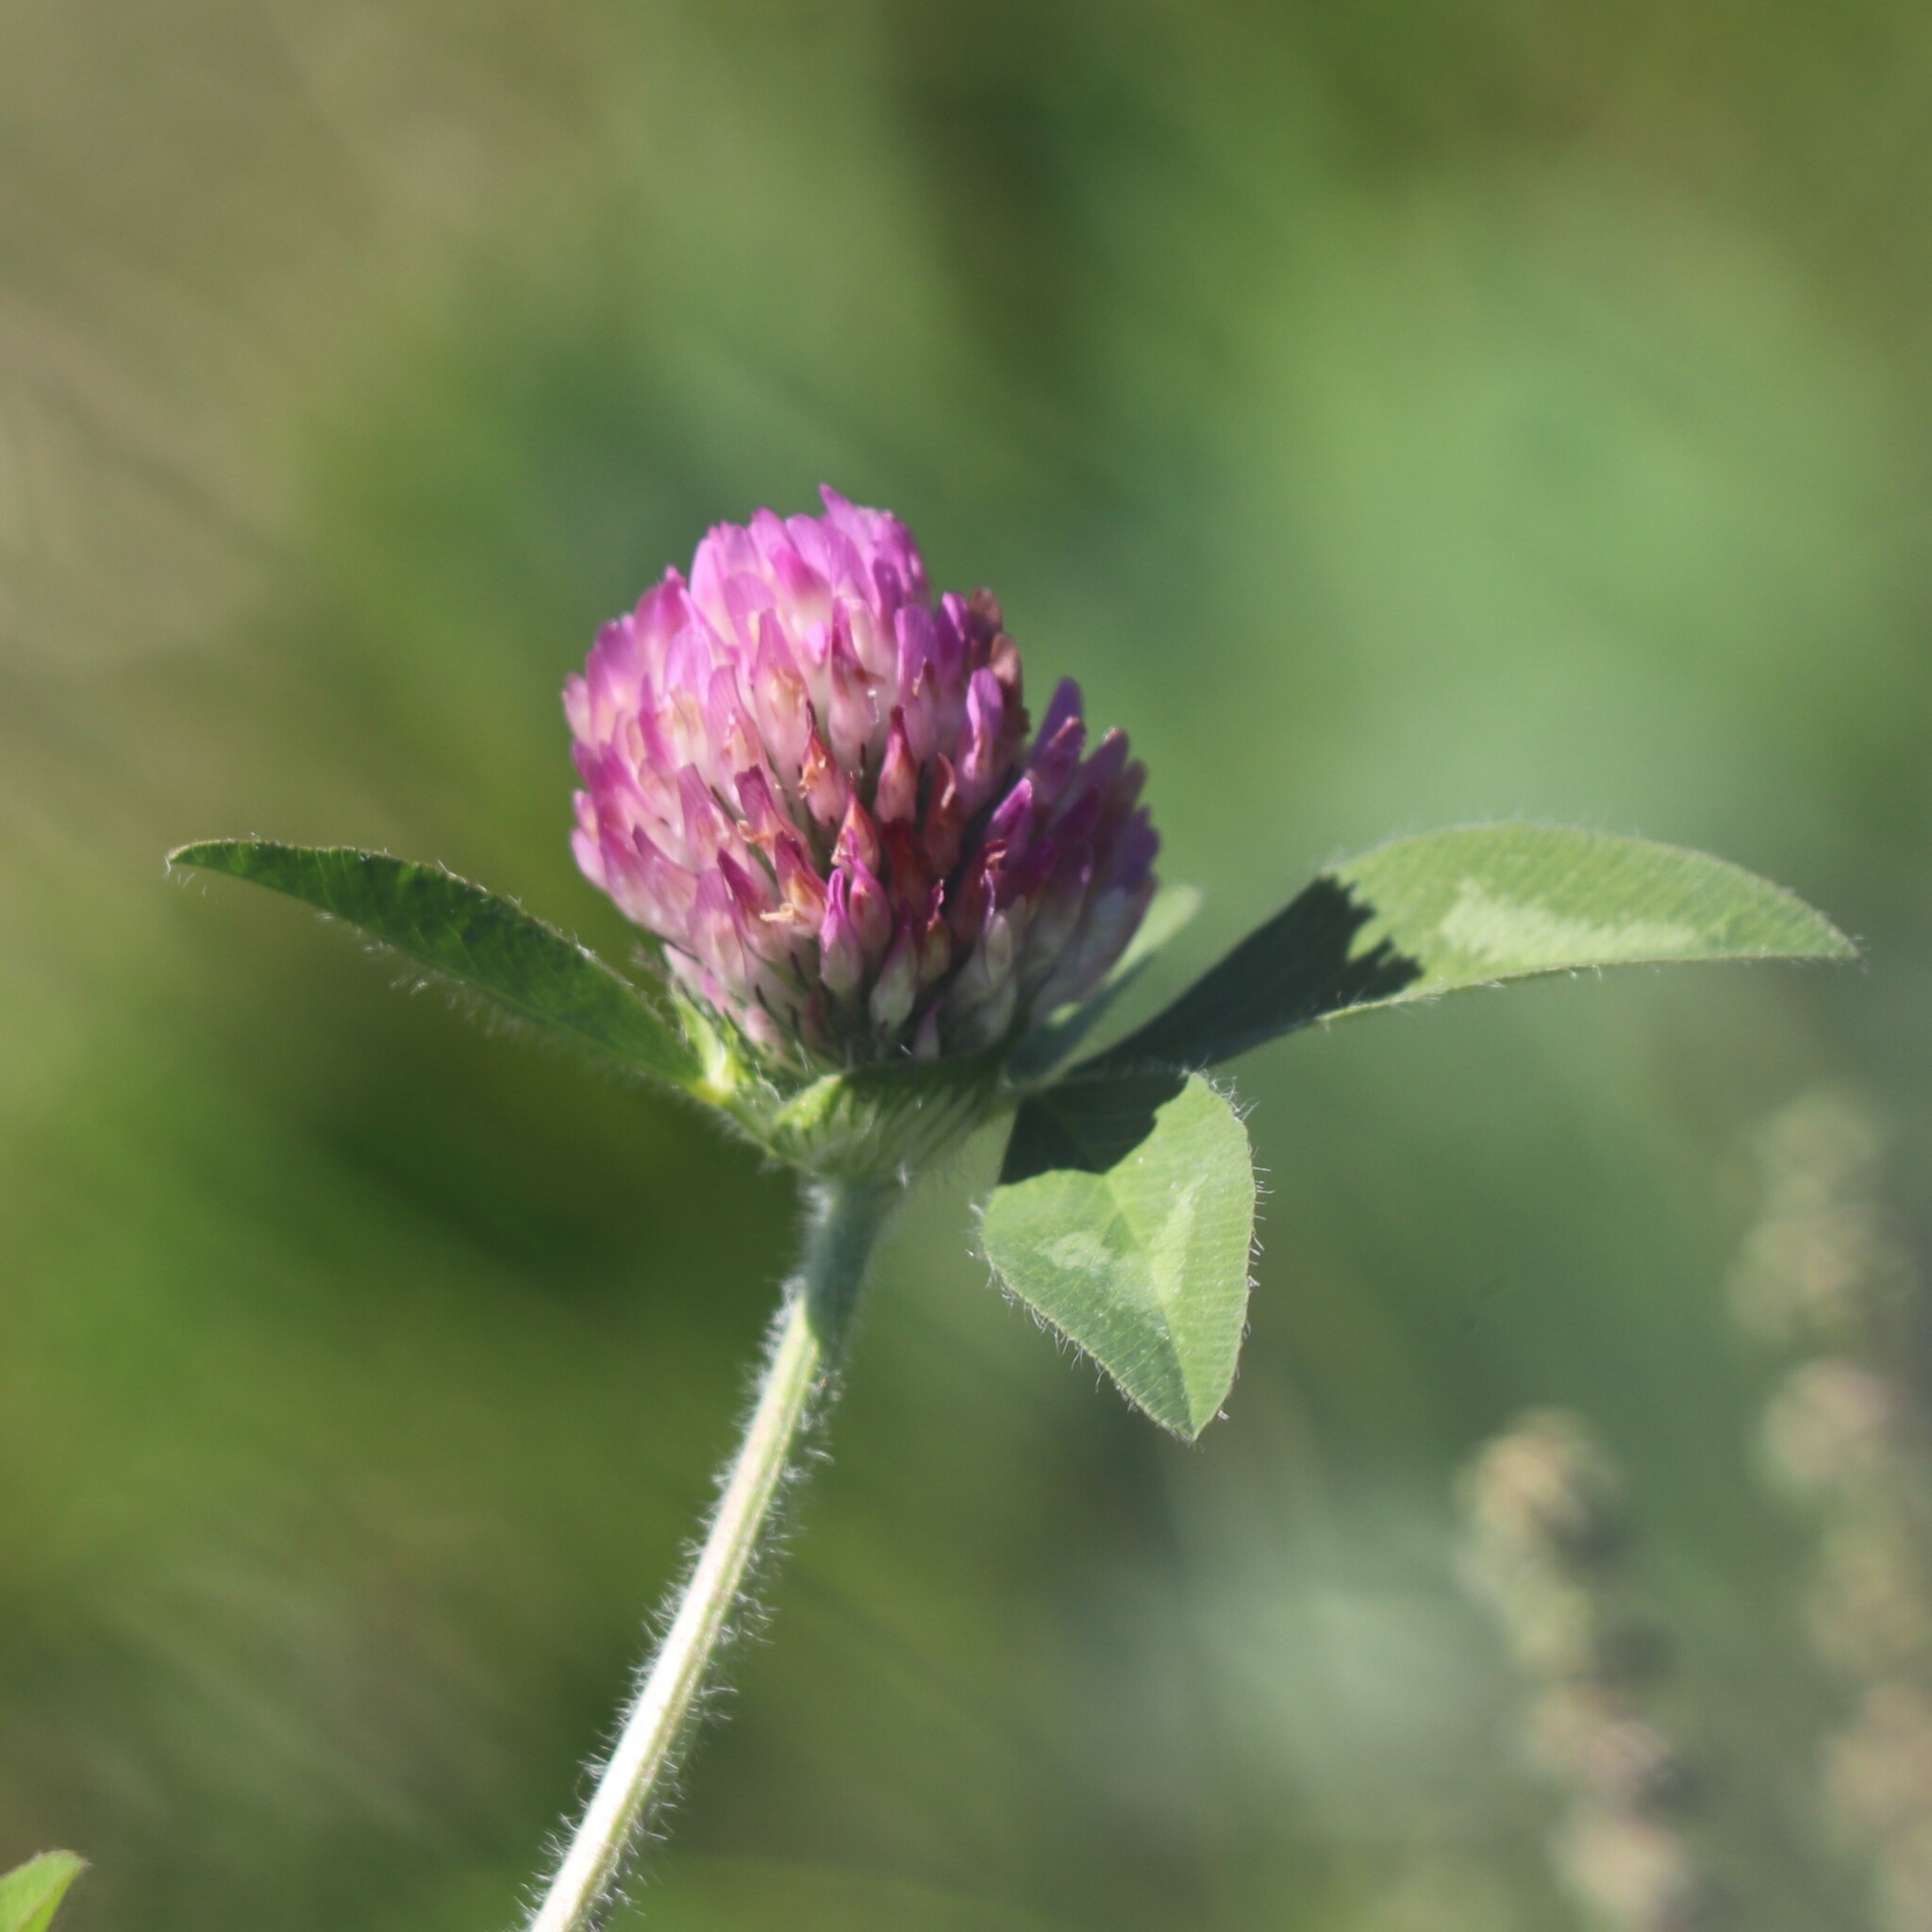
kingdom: Plantae
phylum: Tracheophyta
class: Magnoliopsida
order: Fabales
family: Fabaceae
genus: Trifolium
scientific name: Trifolium pratense
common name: Red clover
